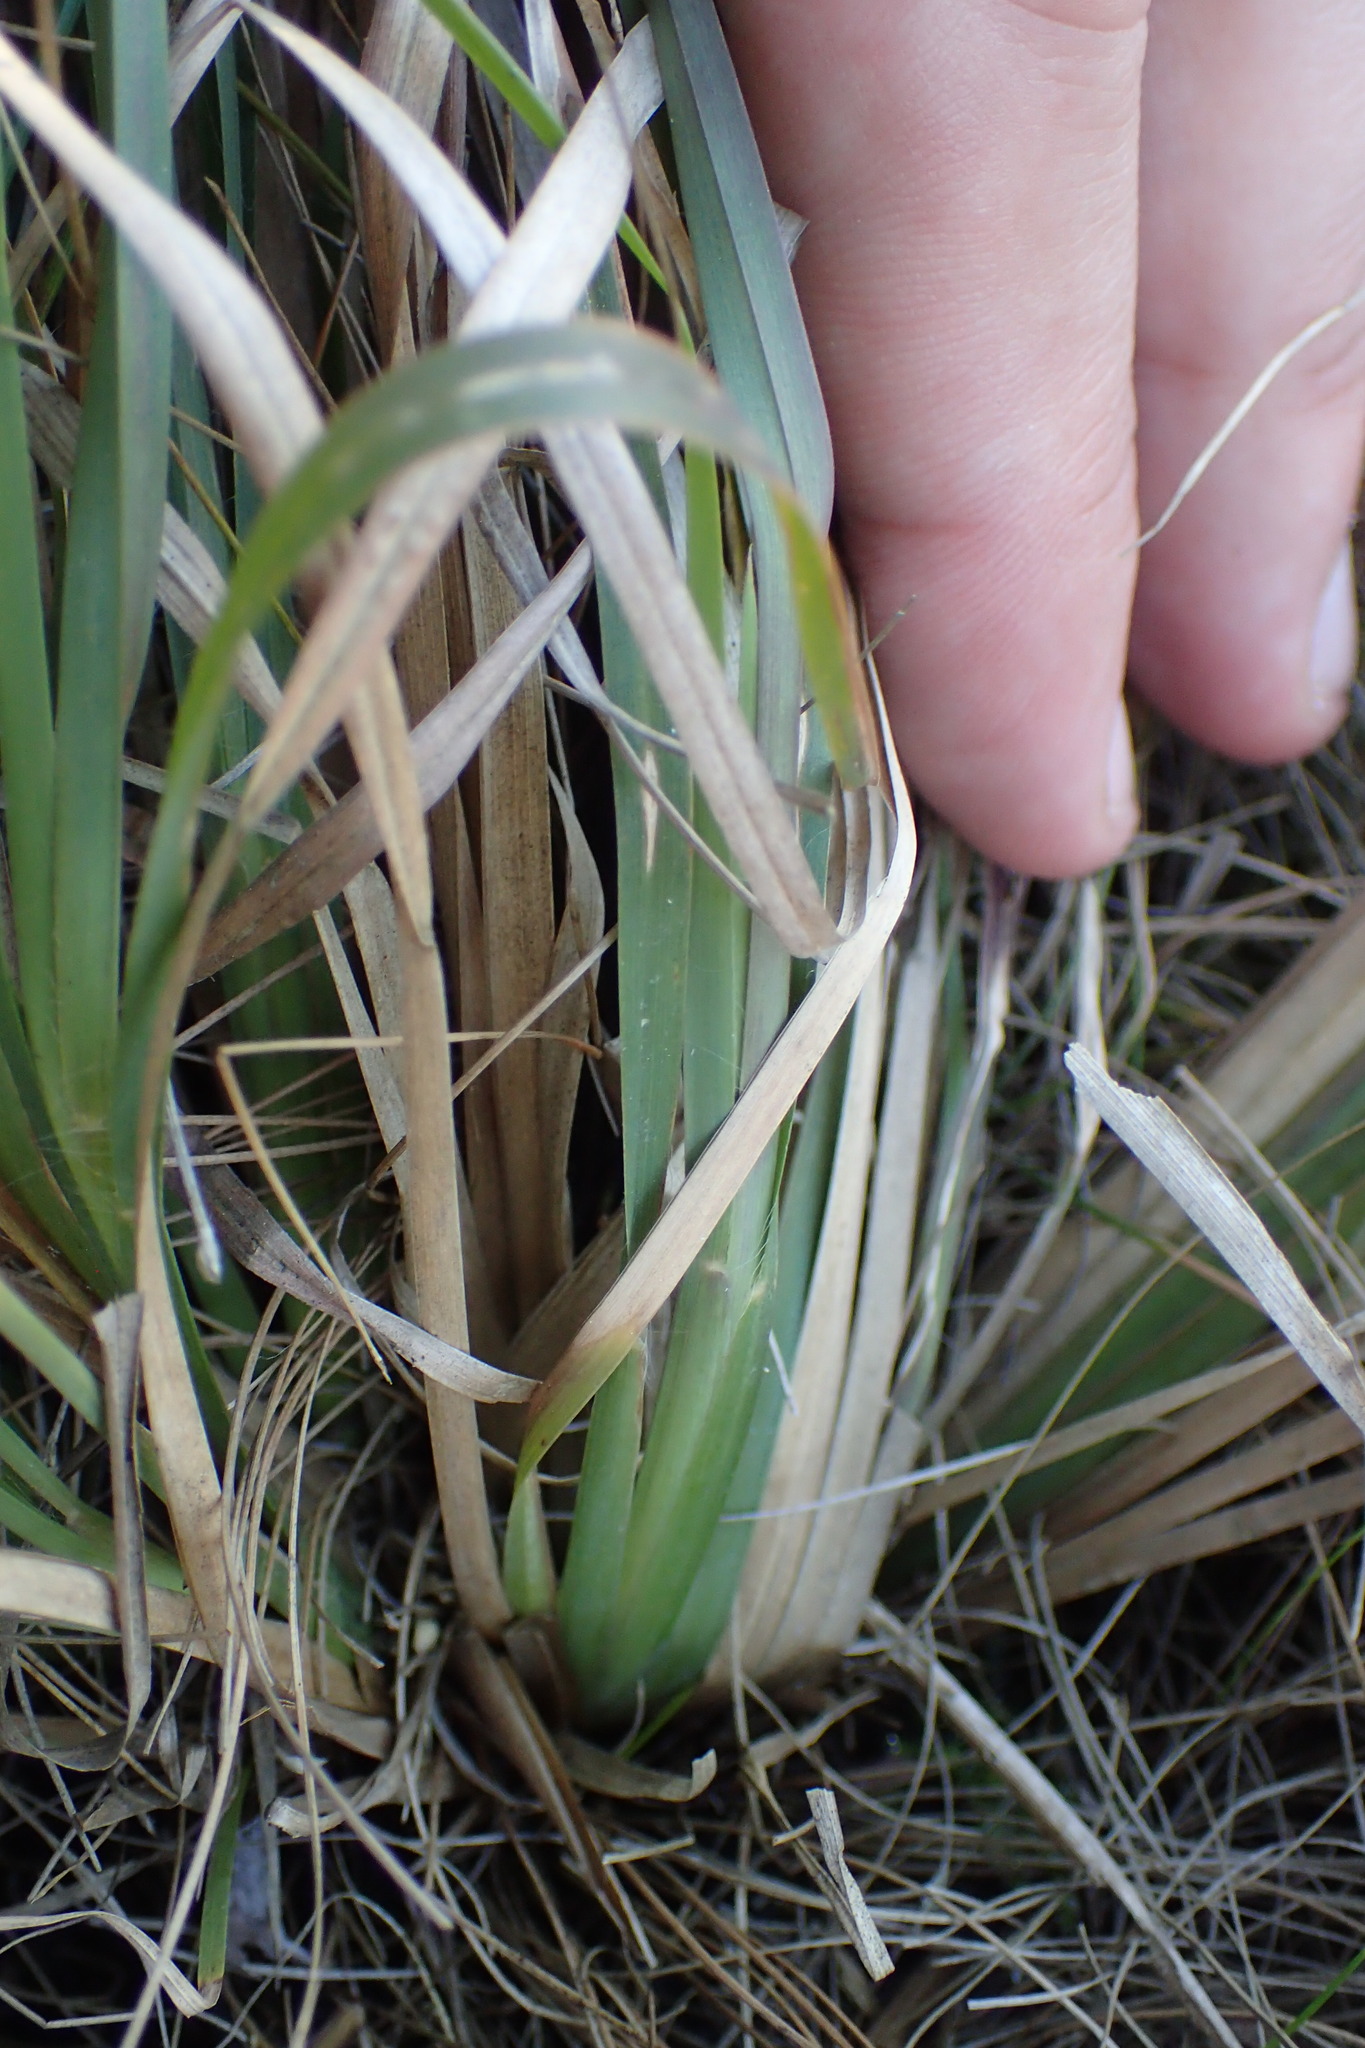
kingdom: Plantae
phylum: Tracheophyta
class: Liliopsida
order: Poales
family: Poaceae
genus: Andropogon
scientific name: Andropogon virginicus
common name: Broomsedge bluestem
